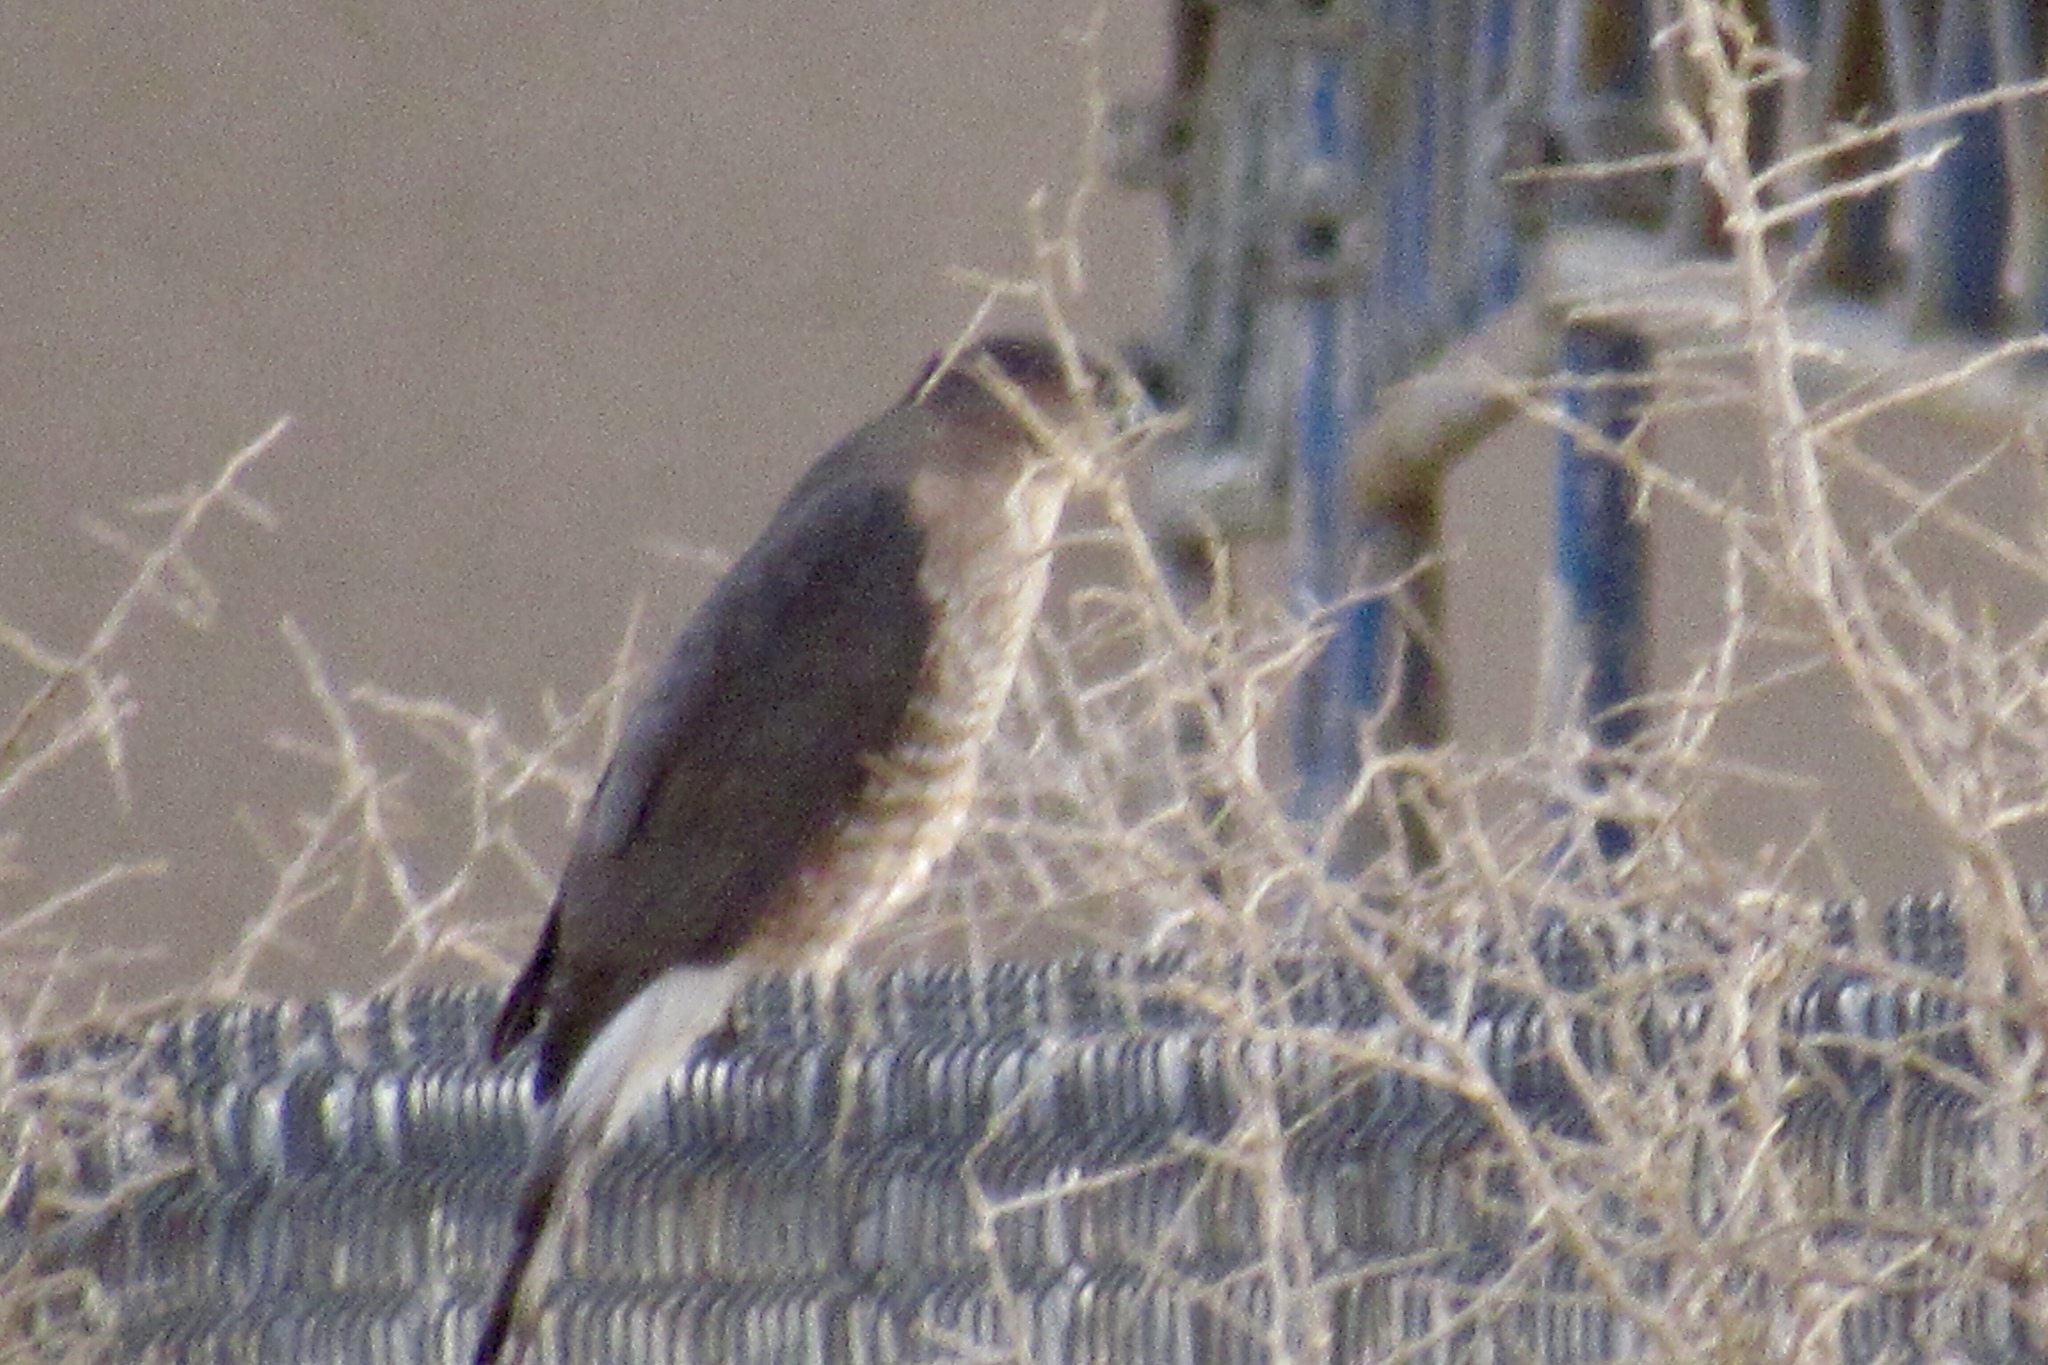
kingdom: Animalia
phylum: Chordata
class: Aves
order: Accipitriformes
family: Accipitridae
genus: Accipiter
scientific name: Accipiter cooperii
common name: Cooper's hawk
